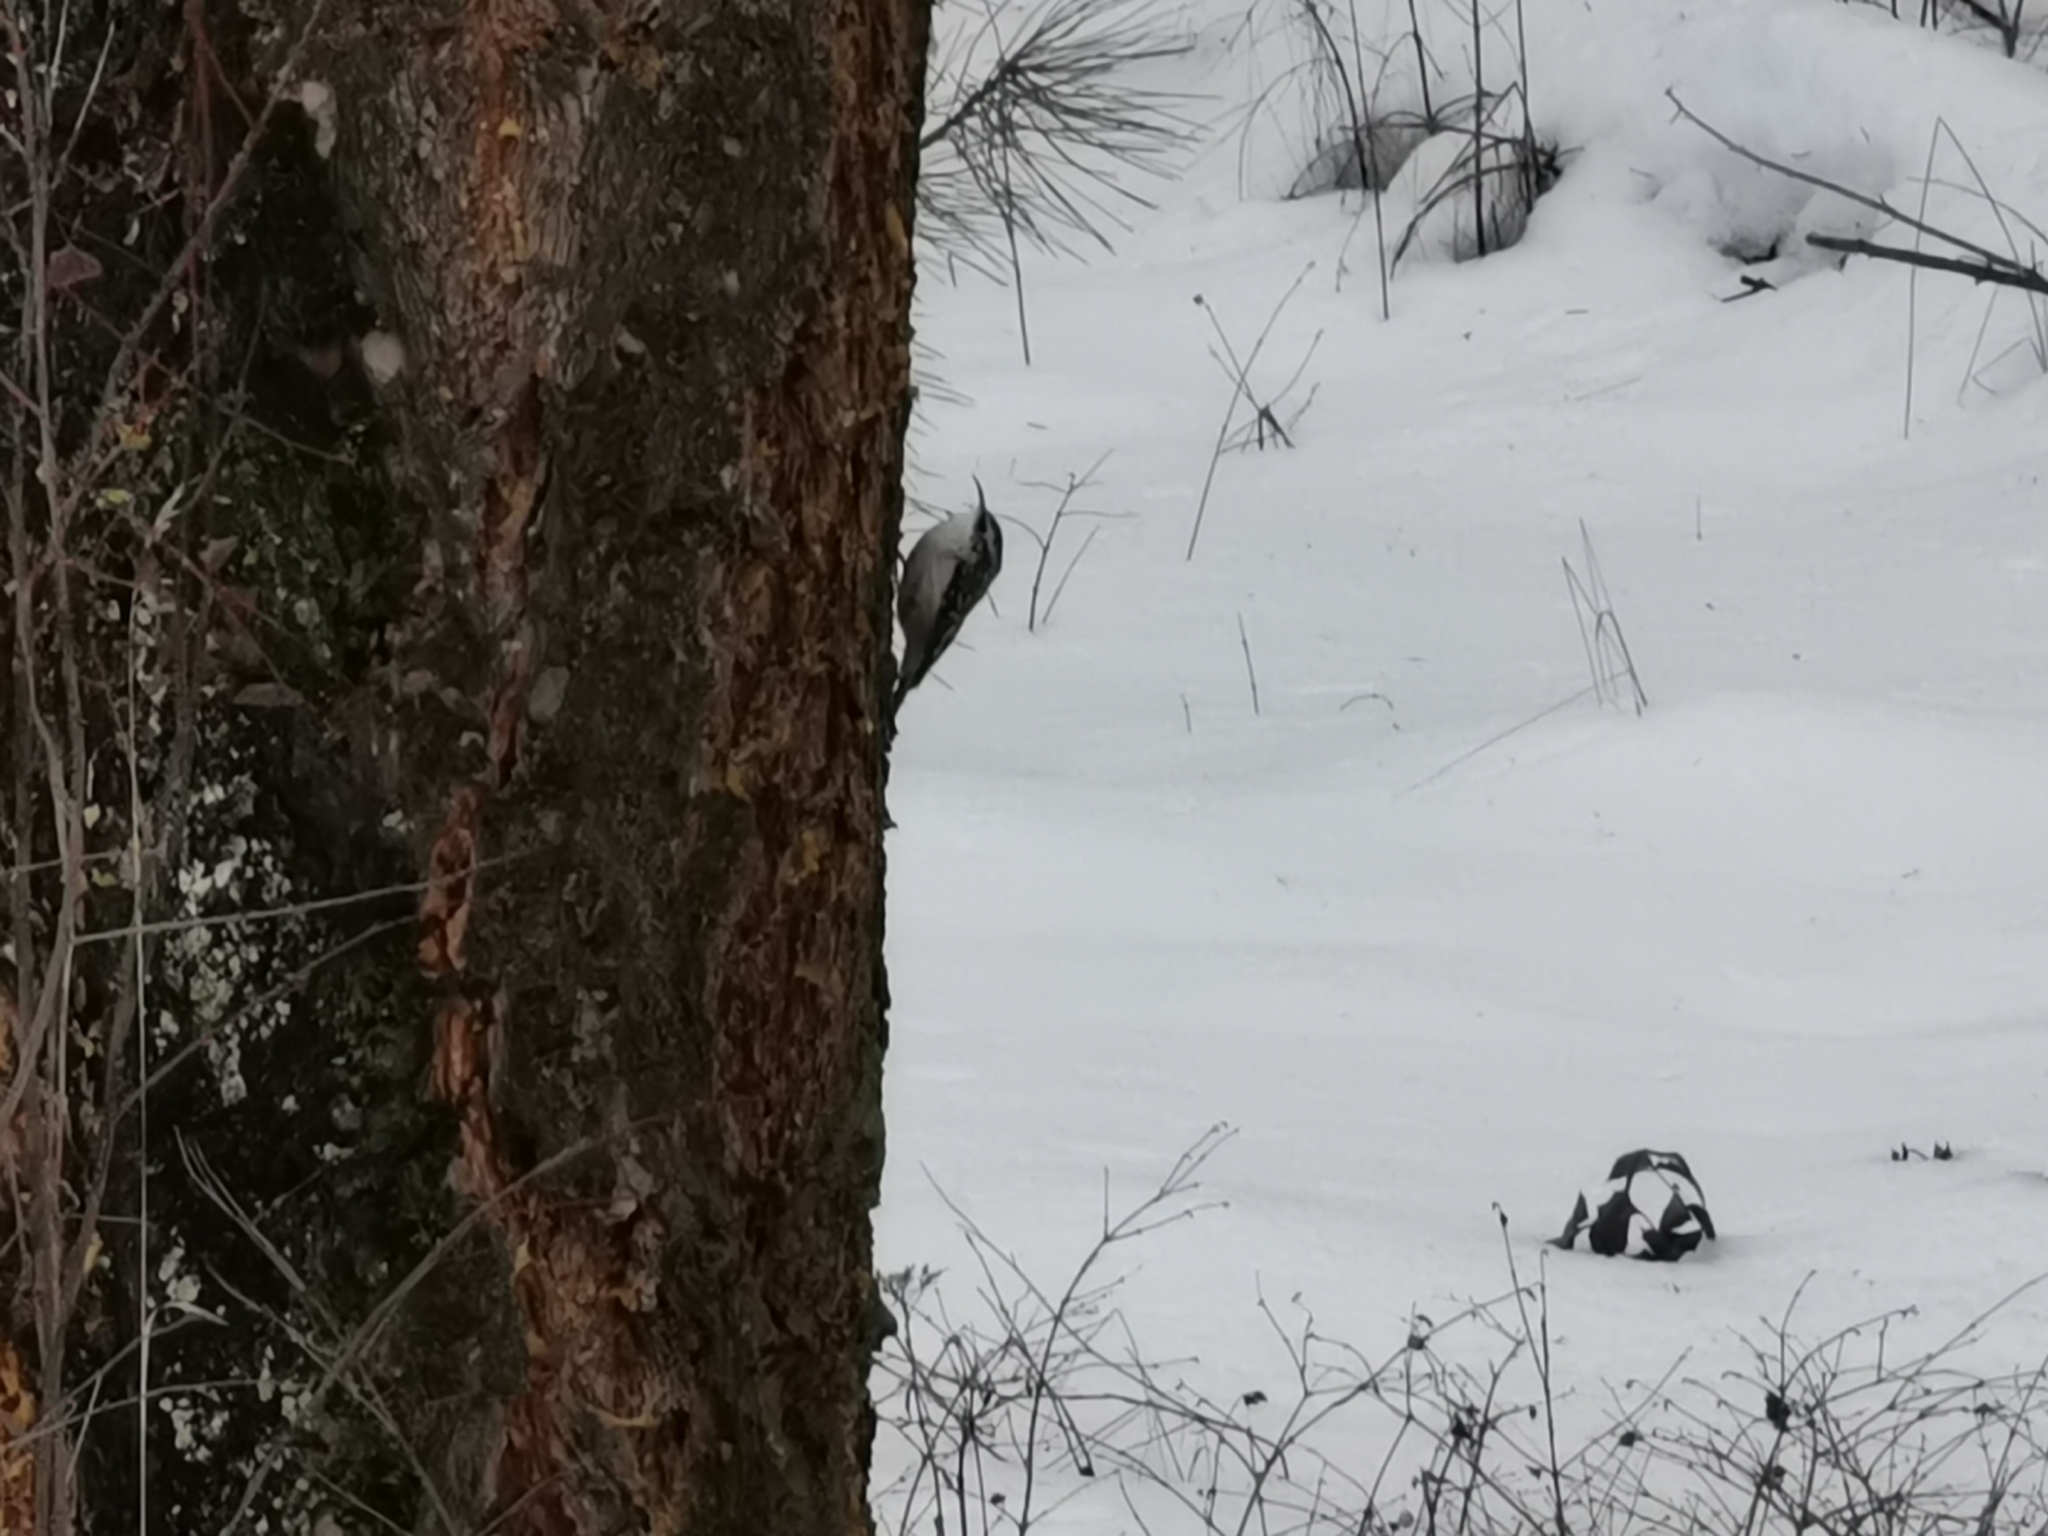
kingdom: Animalia
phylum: Chordata
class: Aves
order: Passeriformes
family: Certhiidae
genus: Certhia
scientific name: Certhia americana
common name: Brown creeper
